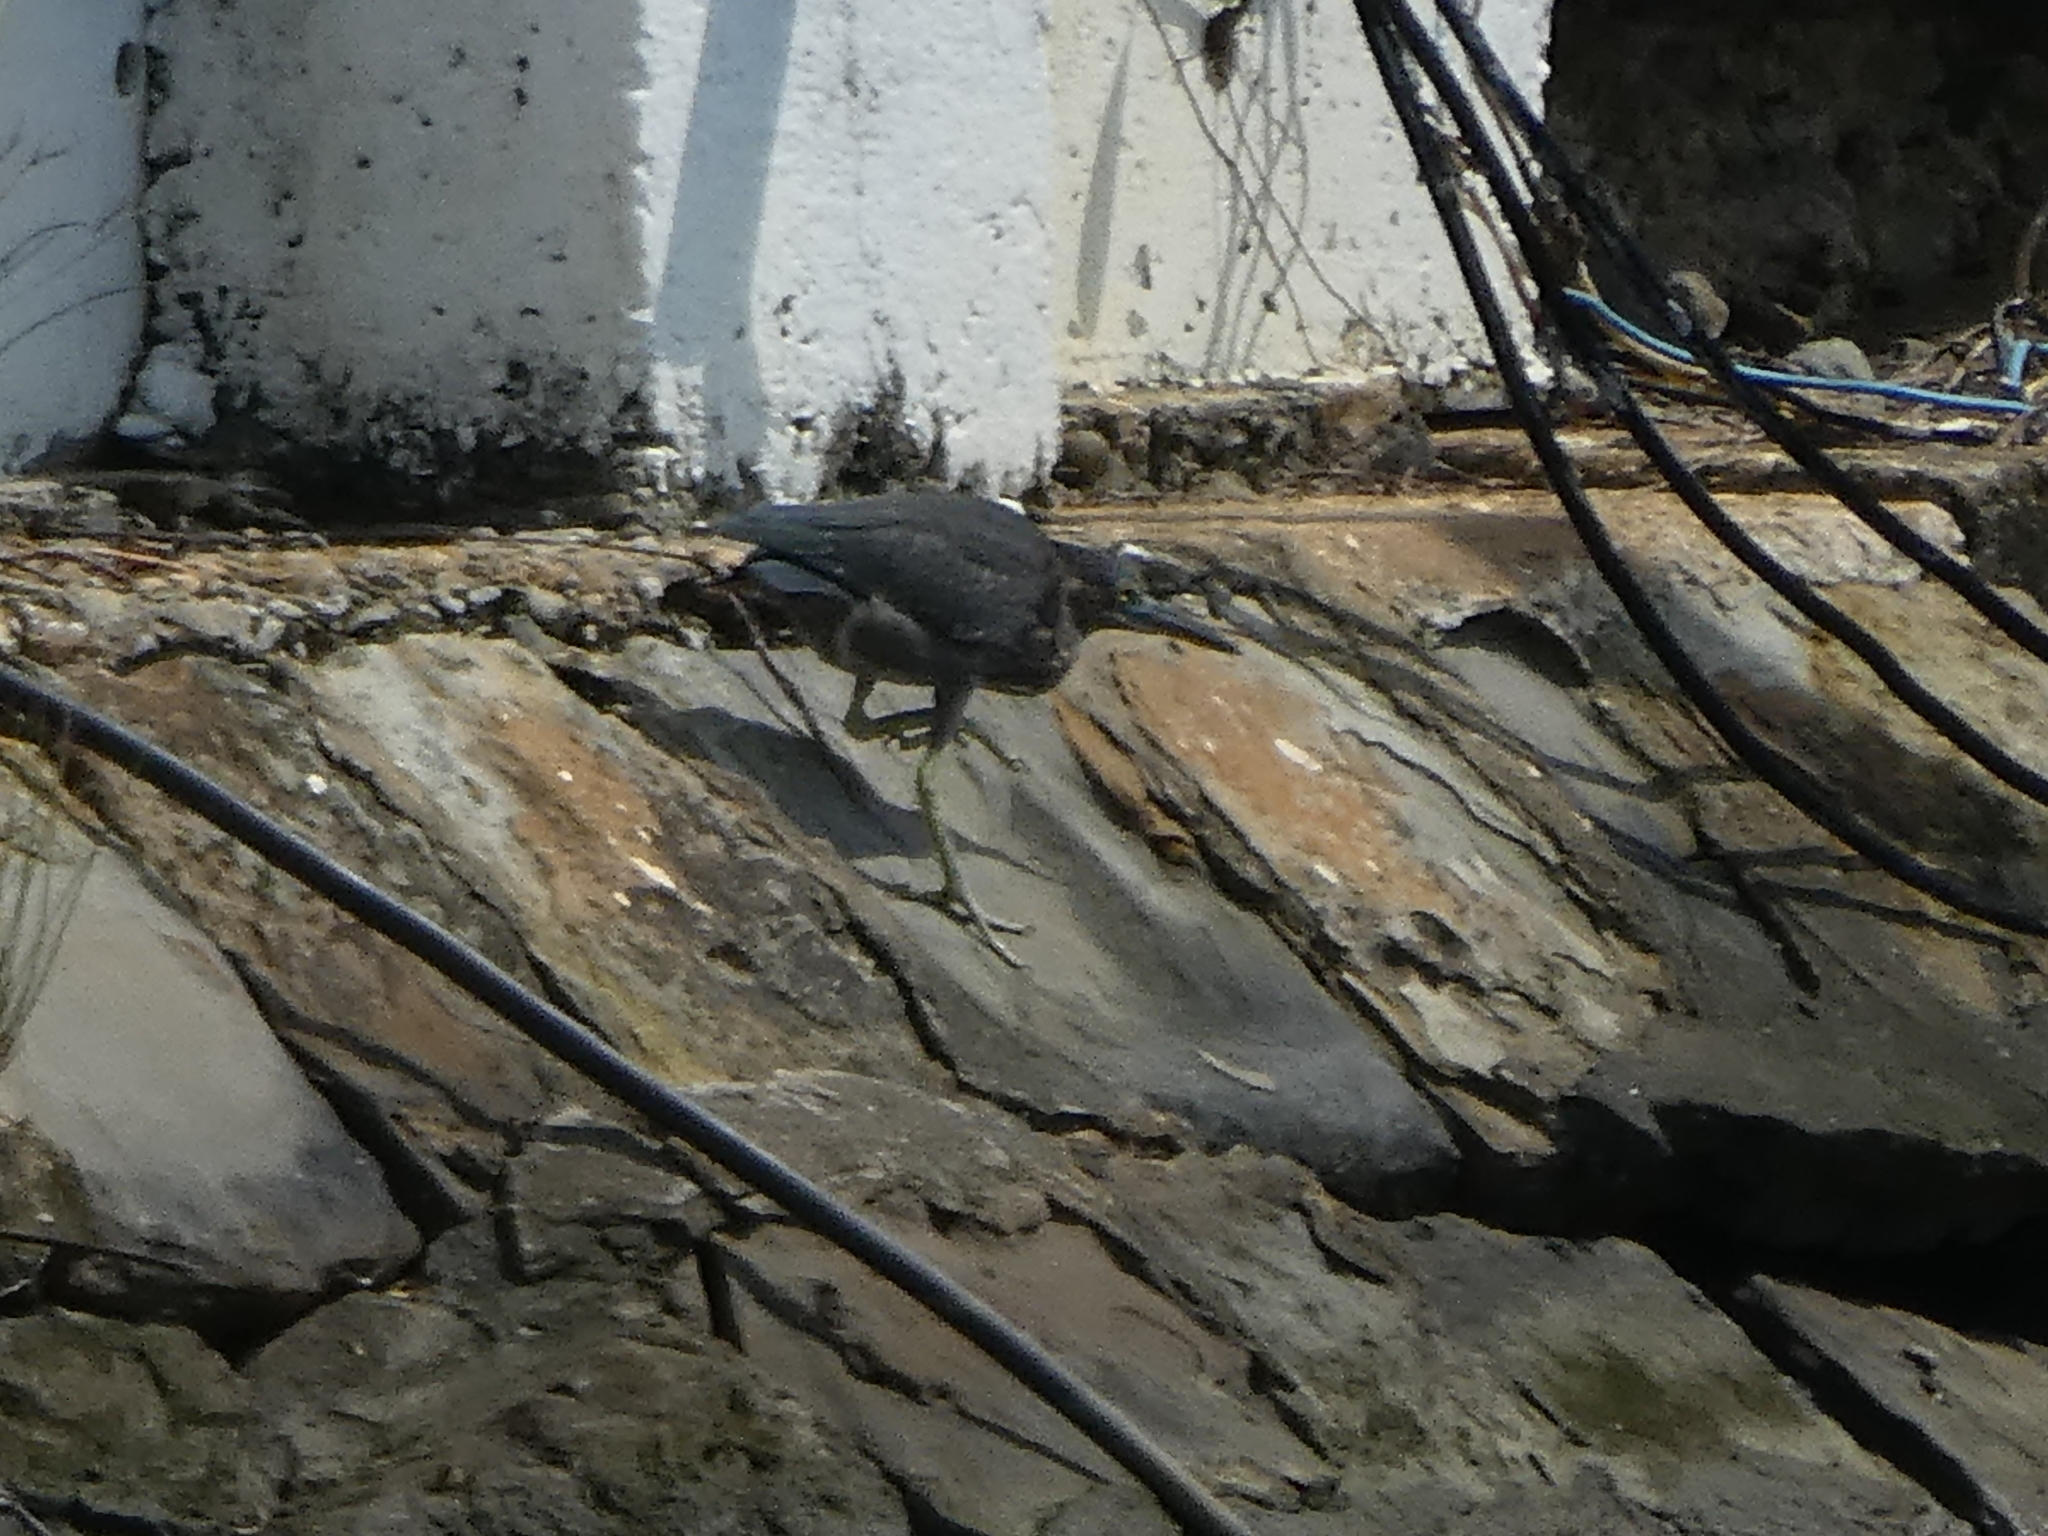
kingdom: Animalia
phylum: Chordata
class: Aves
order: Pelecaniformes
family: Ardeidae
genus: Butorides
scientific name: Butorides striata
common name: Striated heron
